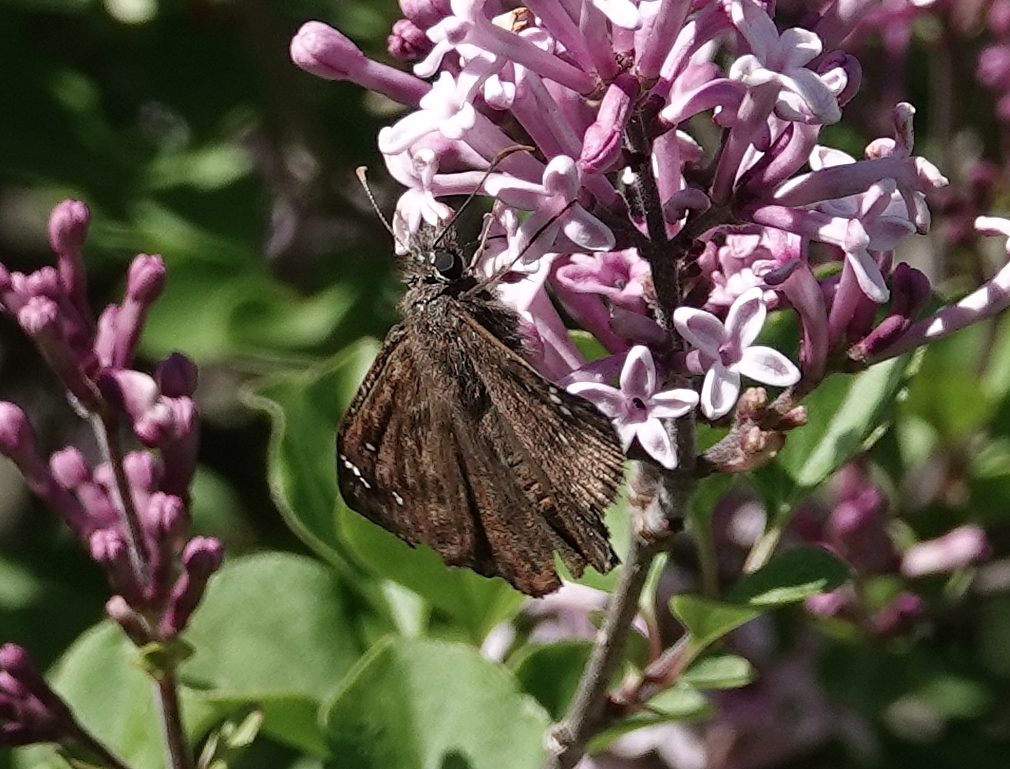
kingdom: Animalia
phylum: Arthropoda
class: Insecta
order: Lepidoptera
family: Hesperiidae
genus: Erynnis
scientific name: Erynnis horatius
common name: Horace's duskywing
